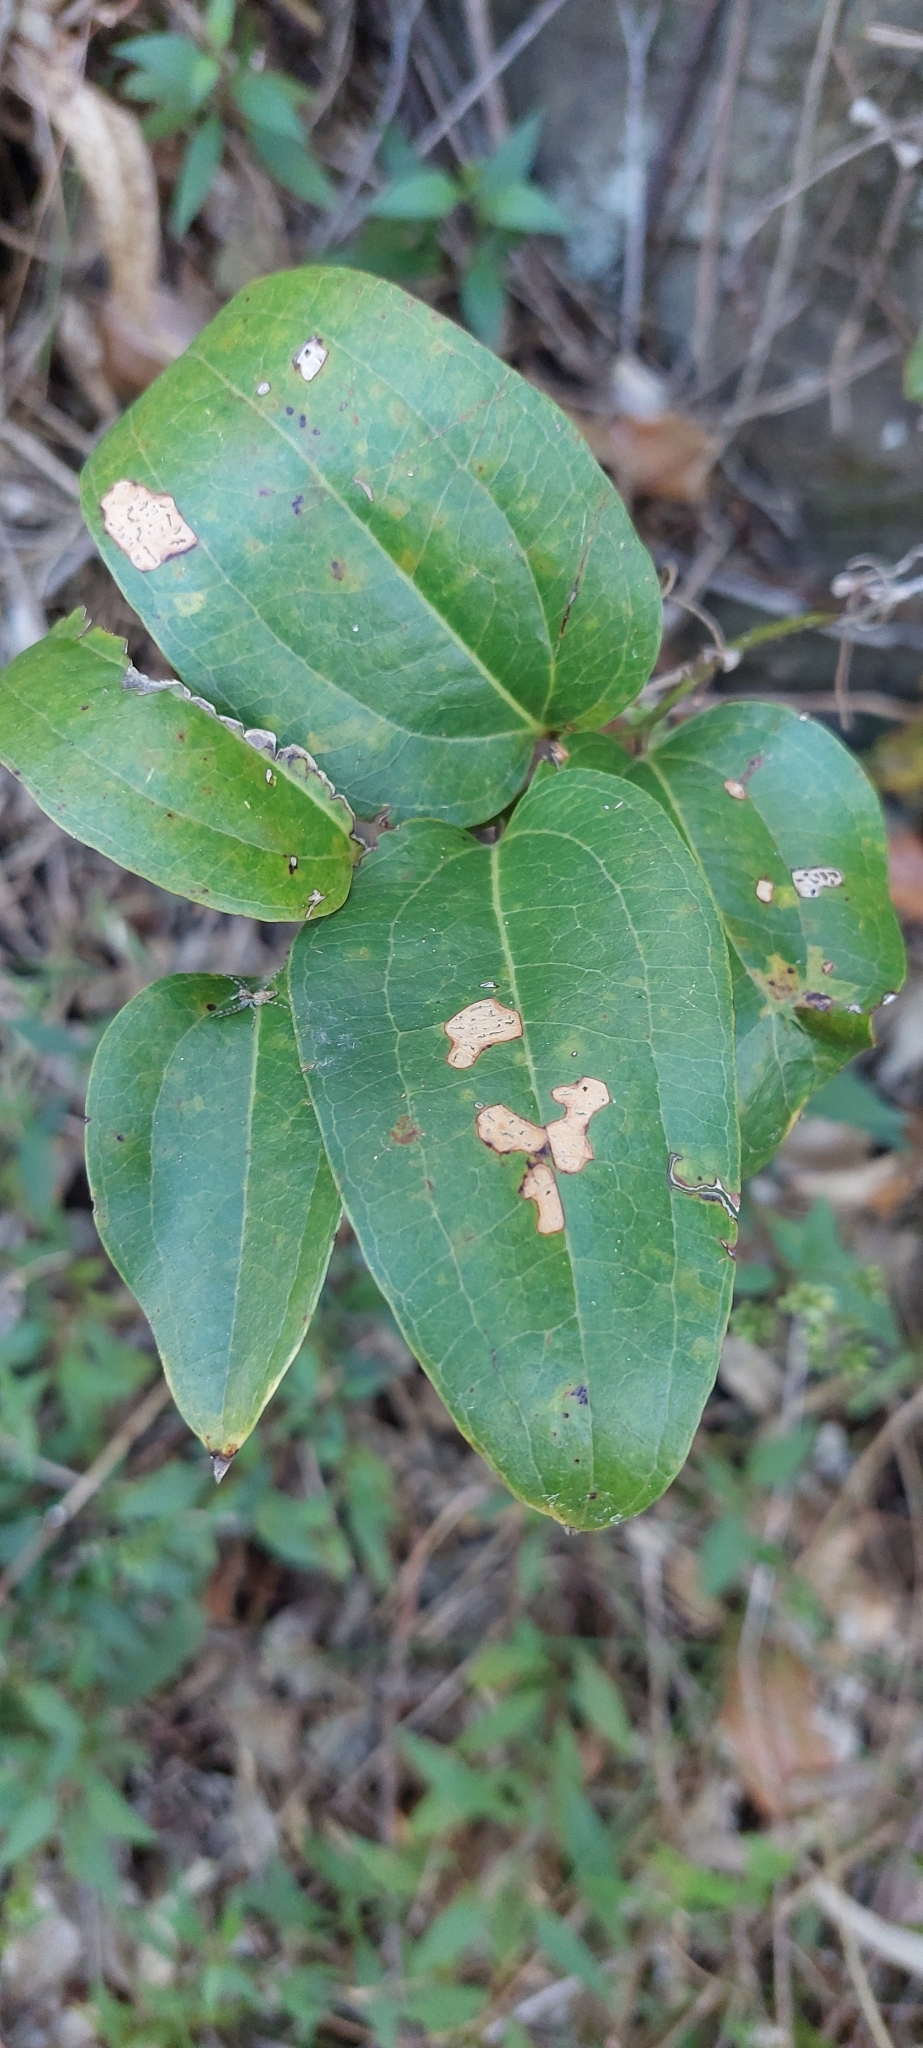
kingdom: Plantae
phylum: Tracheophyta
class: Liliopsida
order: Liliales
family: Smilacaceae
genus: Smilax
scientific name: Smilax australis
